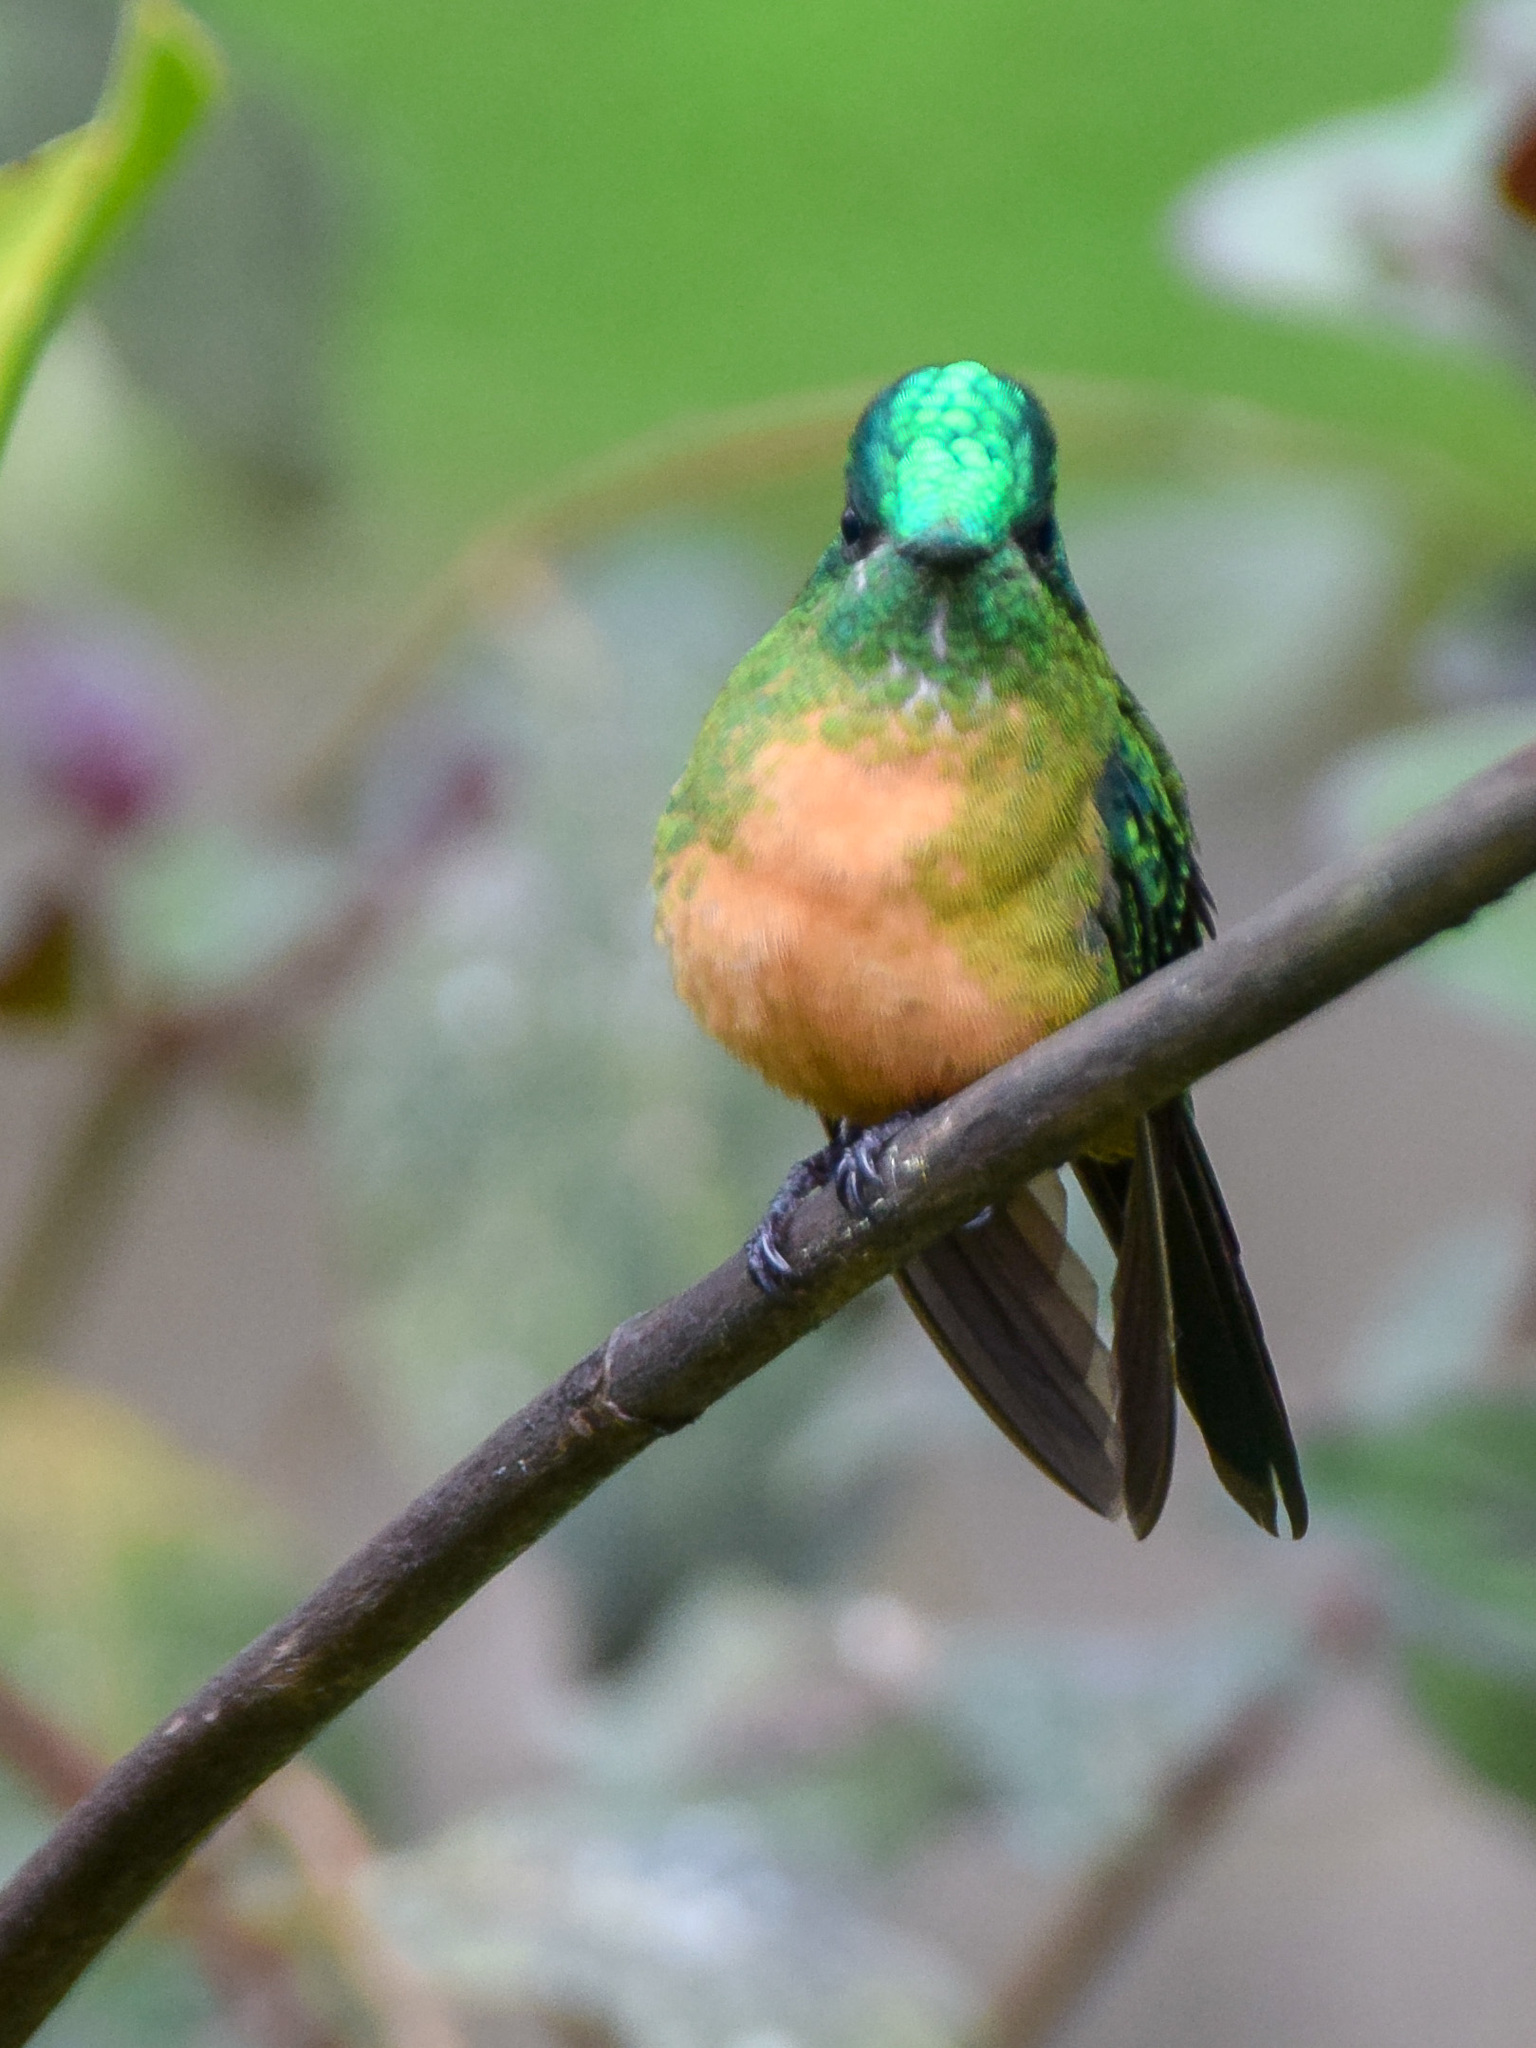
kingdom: Animalia
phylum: Chordata
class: Aves
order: Apodiformes
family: Trochilidae
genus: Aglaiocercus
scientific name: Aglaiocercus kingii
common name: Long-tailed sylph
